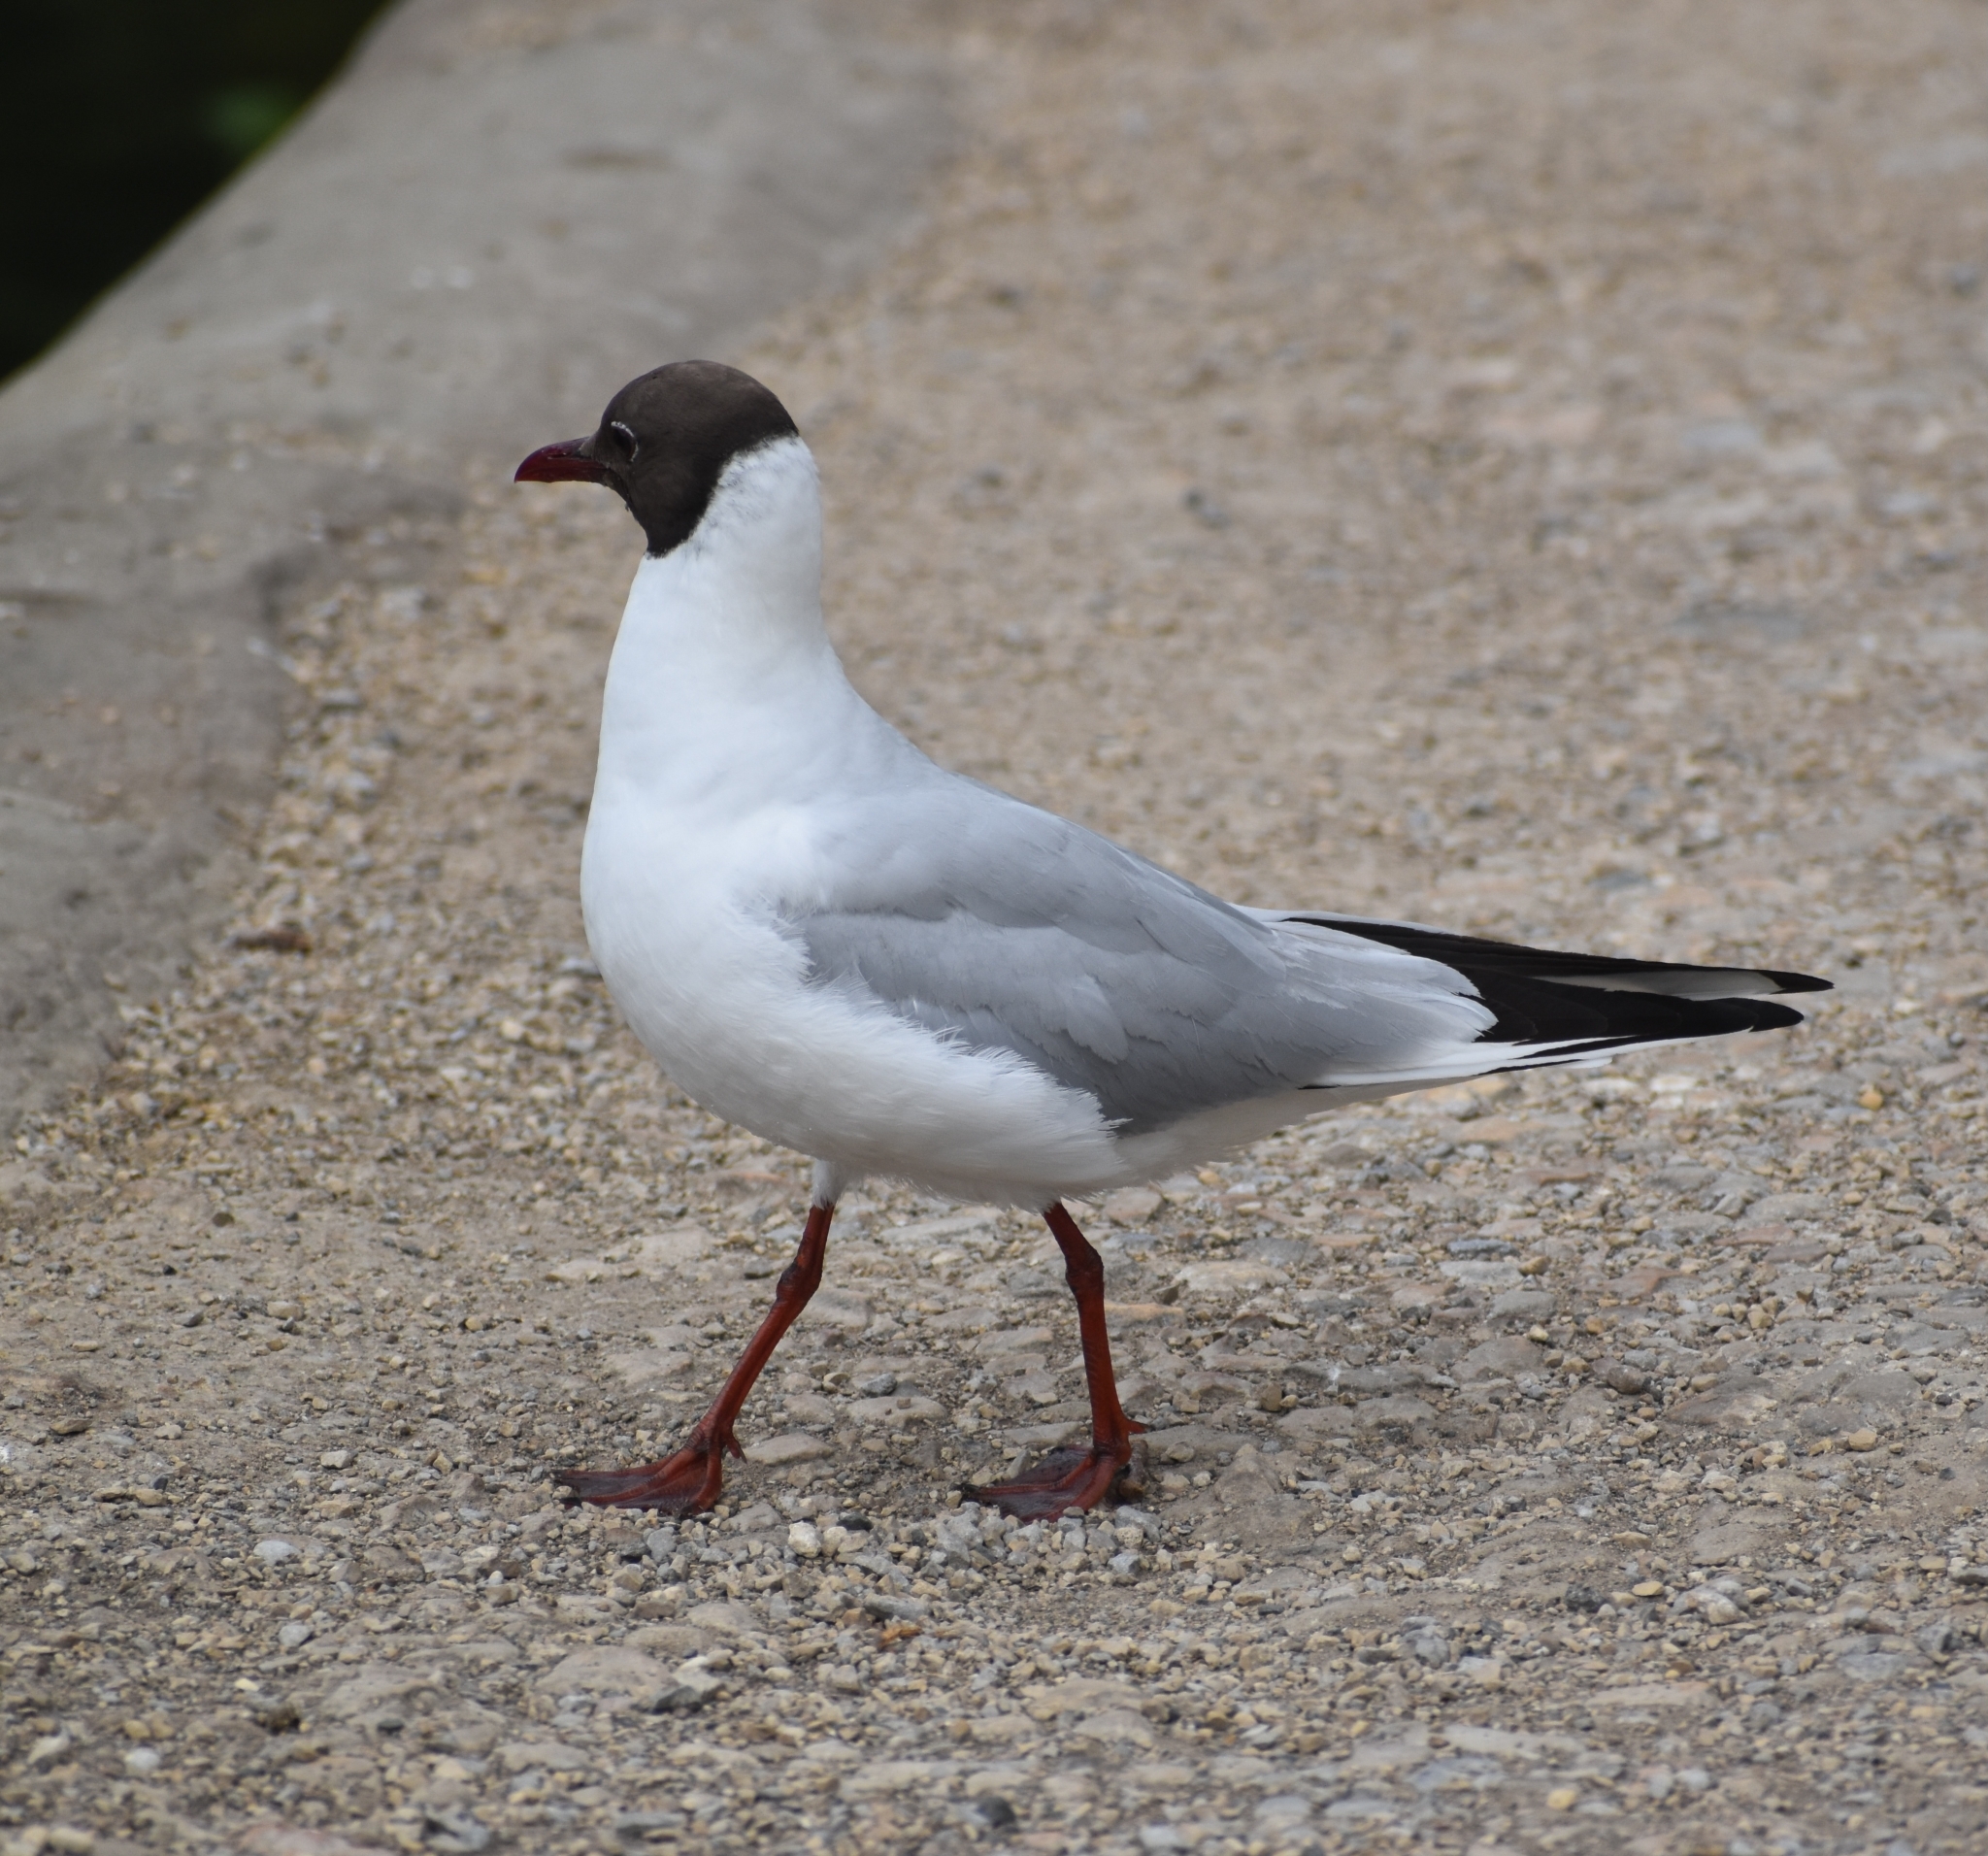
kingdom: Animalia
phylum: Chordata
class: Aves
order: Charadriiformes
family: Laridae
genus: Chroicocephalus
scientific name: Chroicocephalus ridibundus
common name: Black-headed gull
